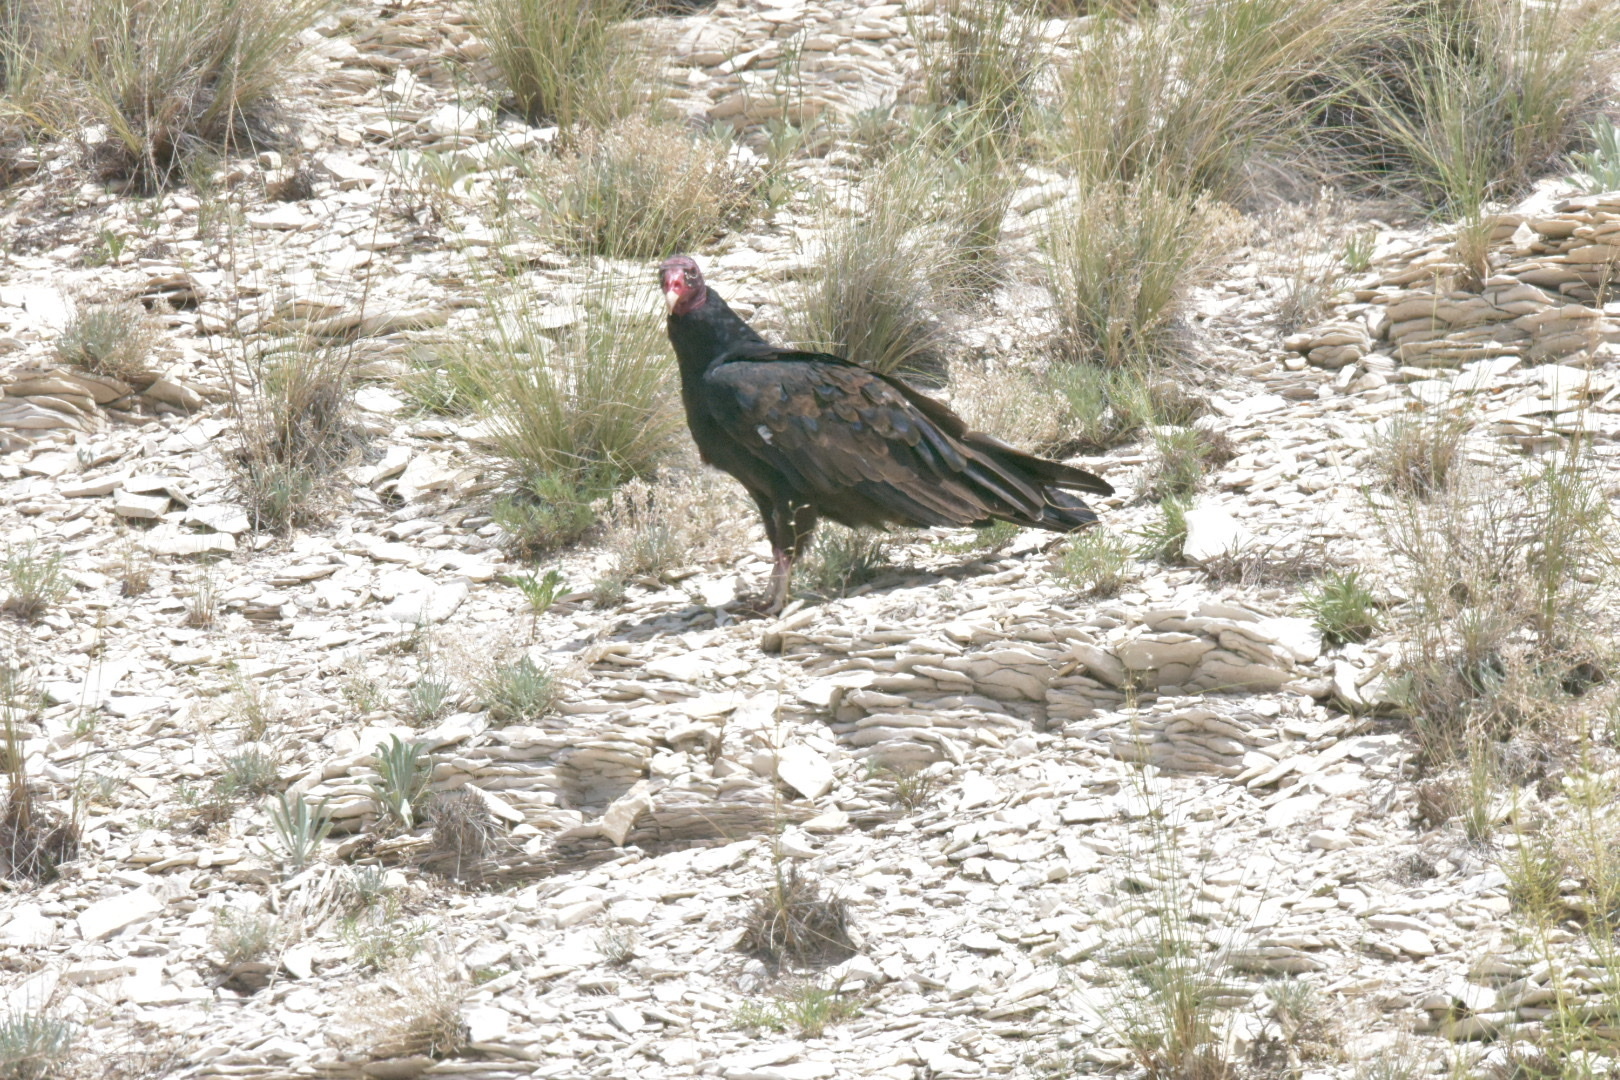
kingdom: Animalia
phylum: Chordata
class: Aves
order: Accipitriformes
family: Cathartidae
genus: Cathartes
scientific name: Cathartes aura
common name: Turkey vulture
